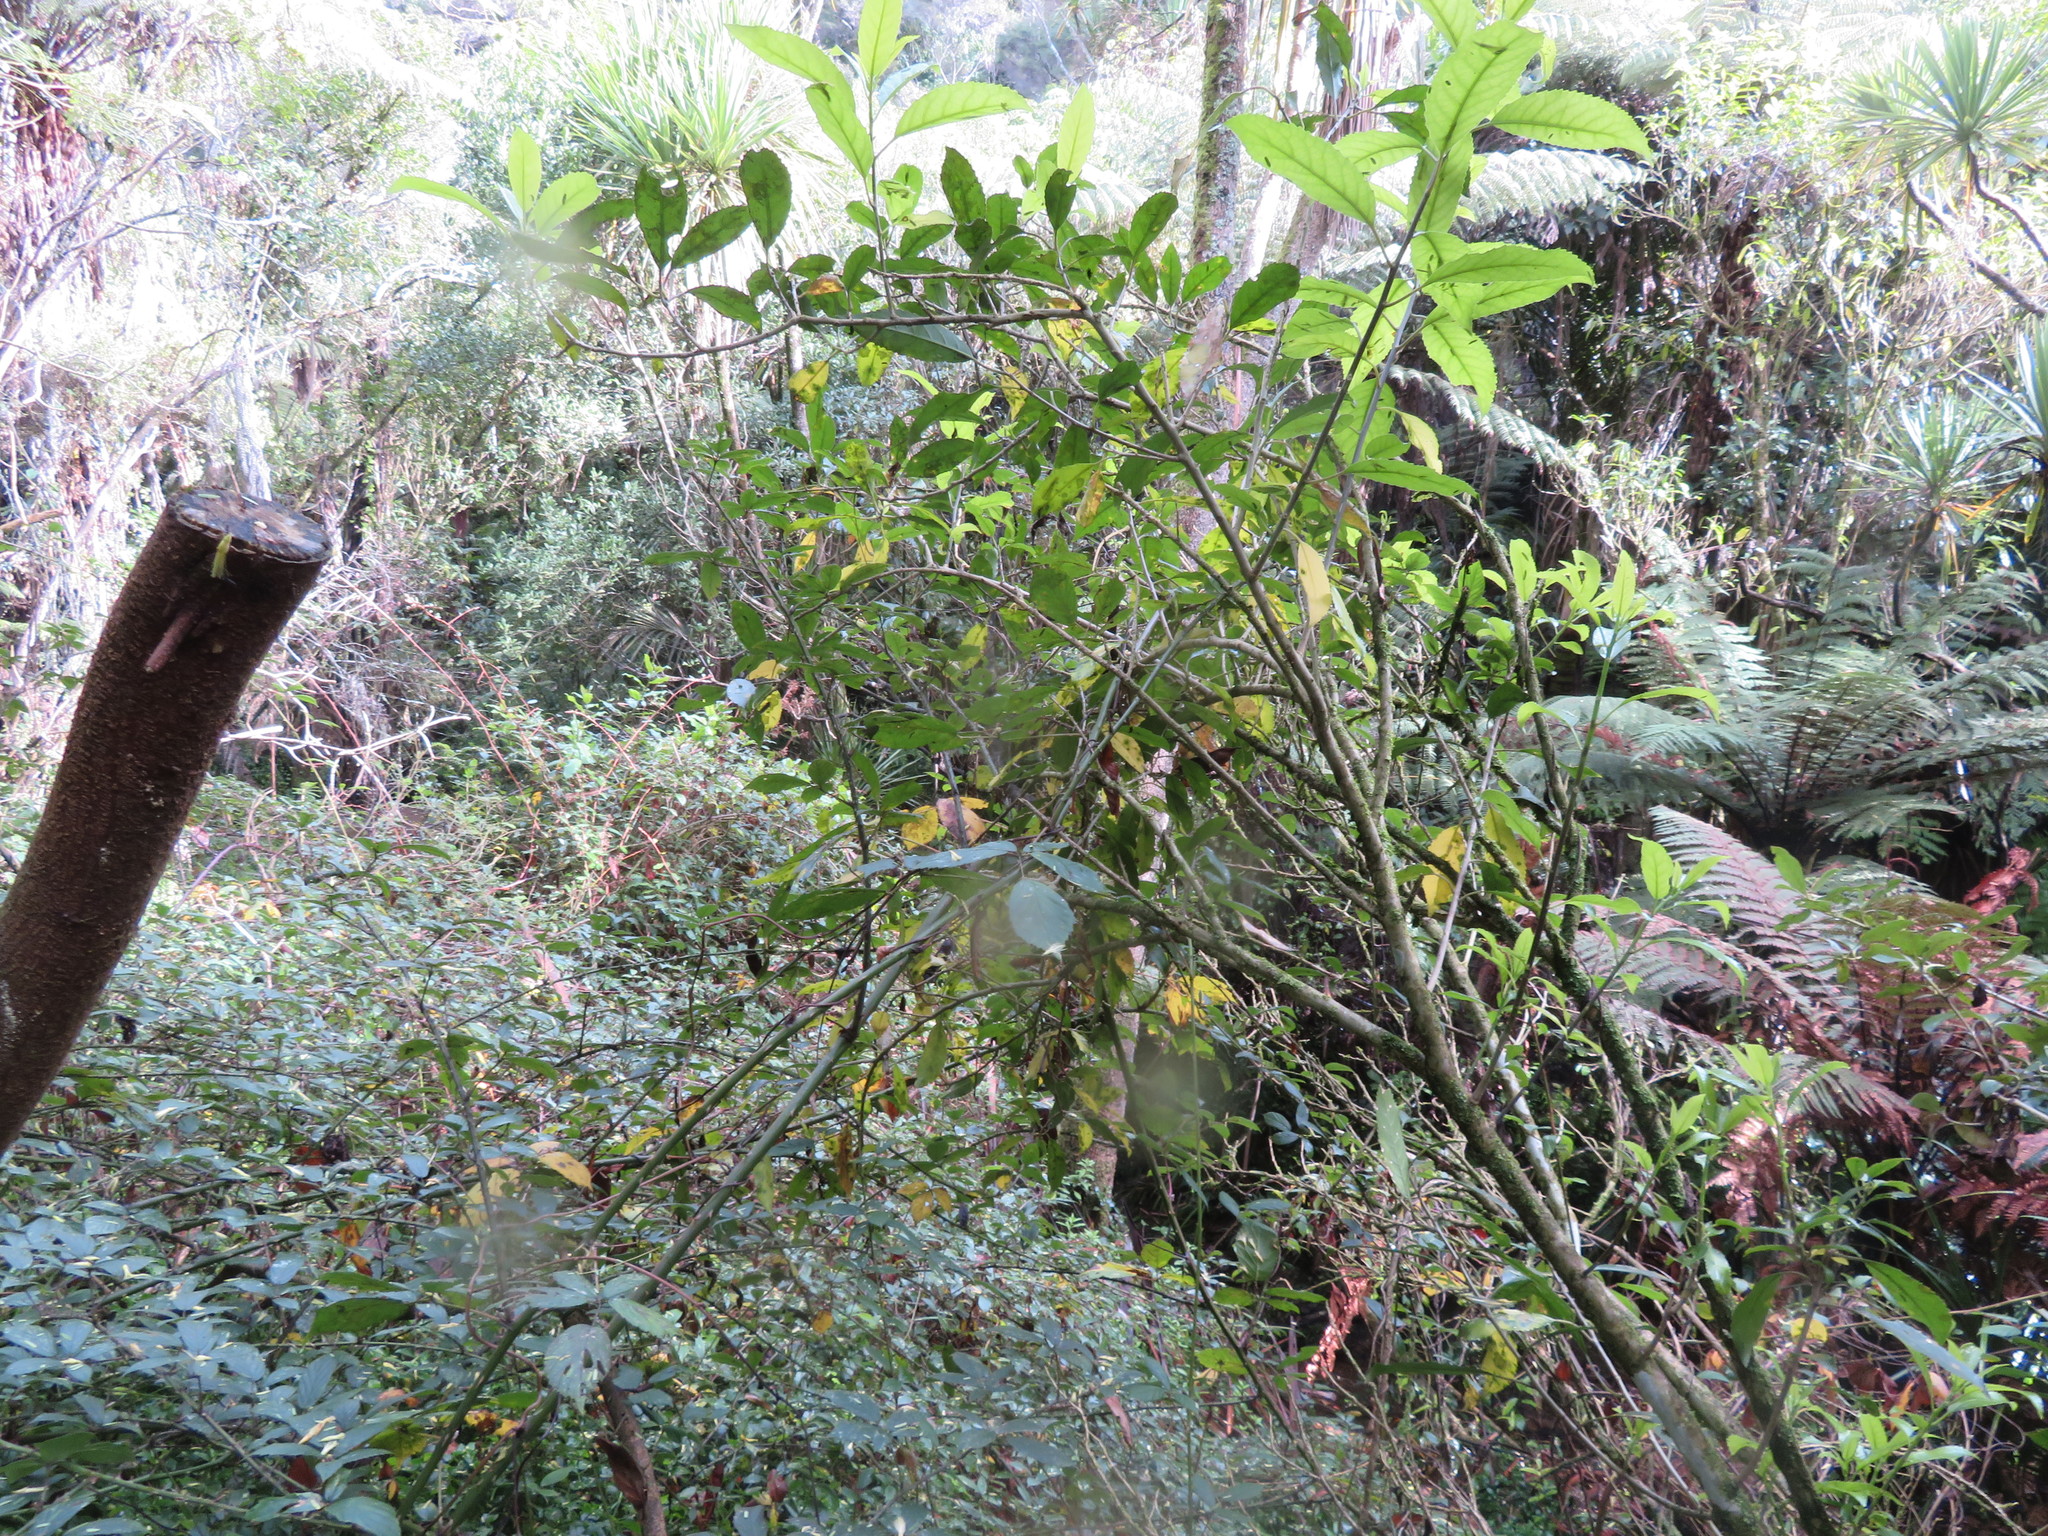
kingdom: Plantae
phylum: Tracheophyta
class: Magnoliopsida
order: Malpighiales
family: Violaceae
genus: Melicytus
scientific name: Melicytus ramiflorus
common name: Mahoe
